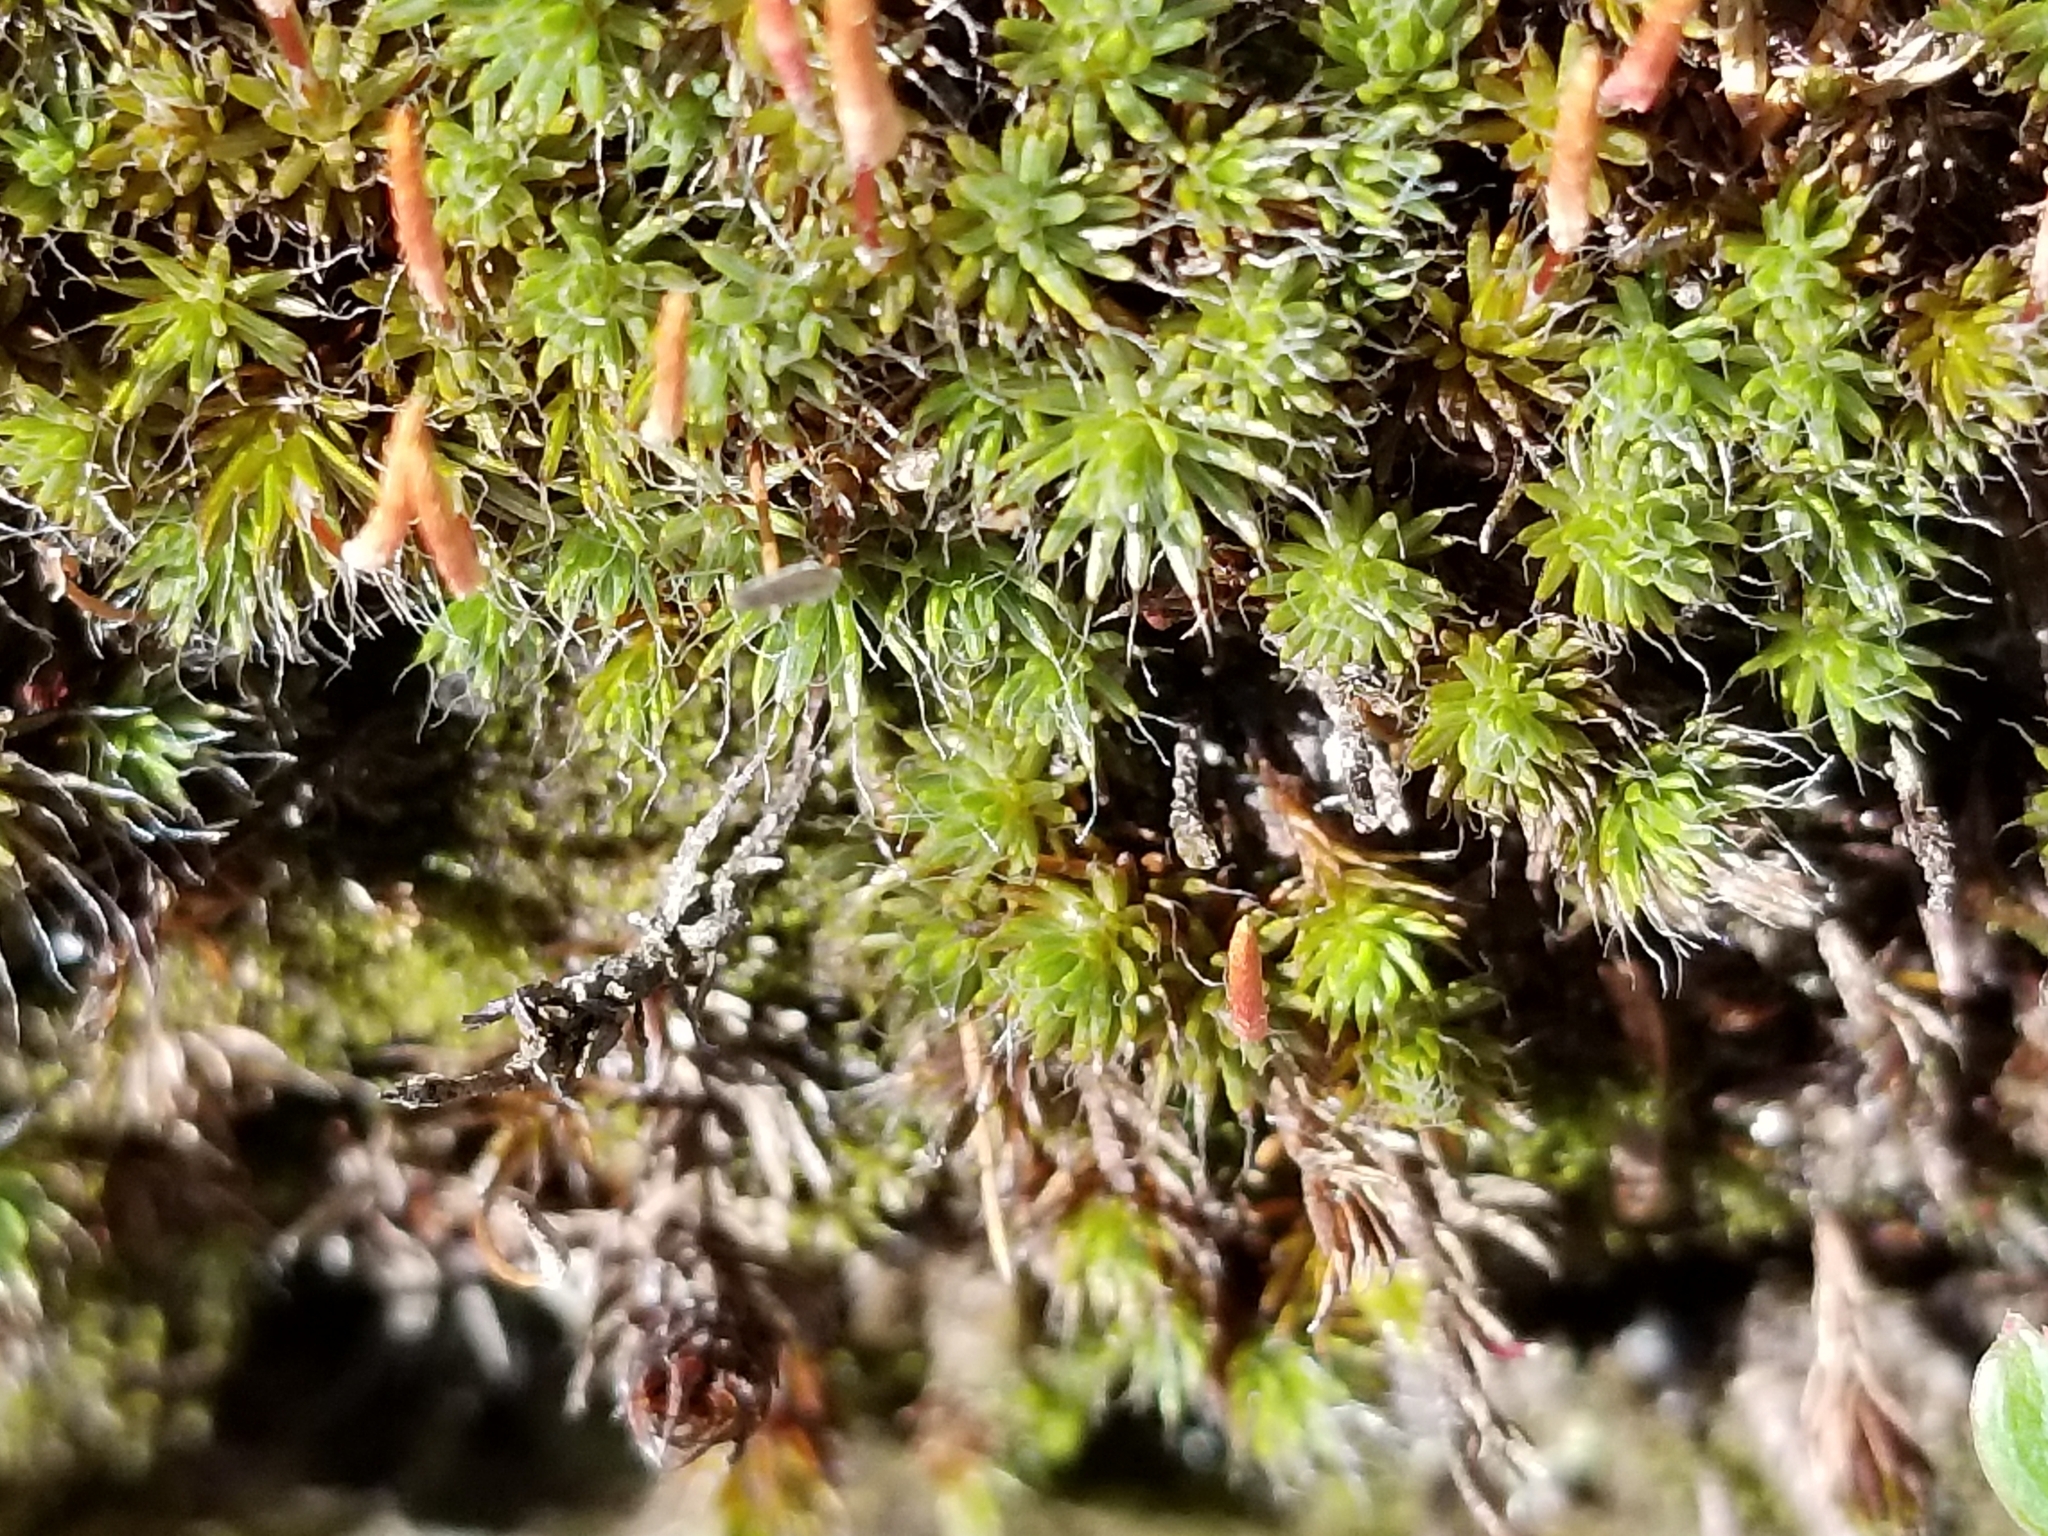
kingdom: Plantae
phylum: Bryophyta
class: Polytrichopsida
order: Polytrichales
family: Polytrichaceae
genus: Polytrichum
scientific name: Polytrichum piliferum
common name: Bristly haircap
